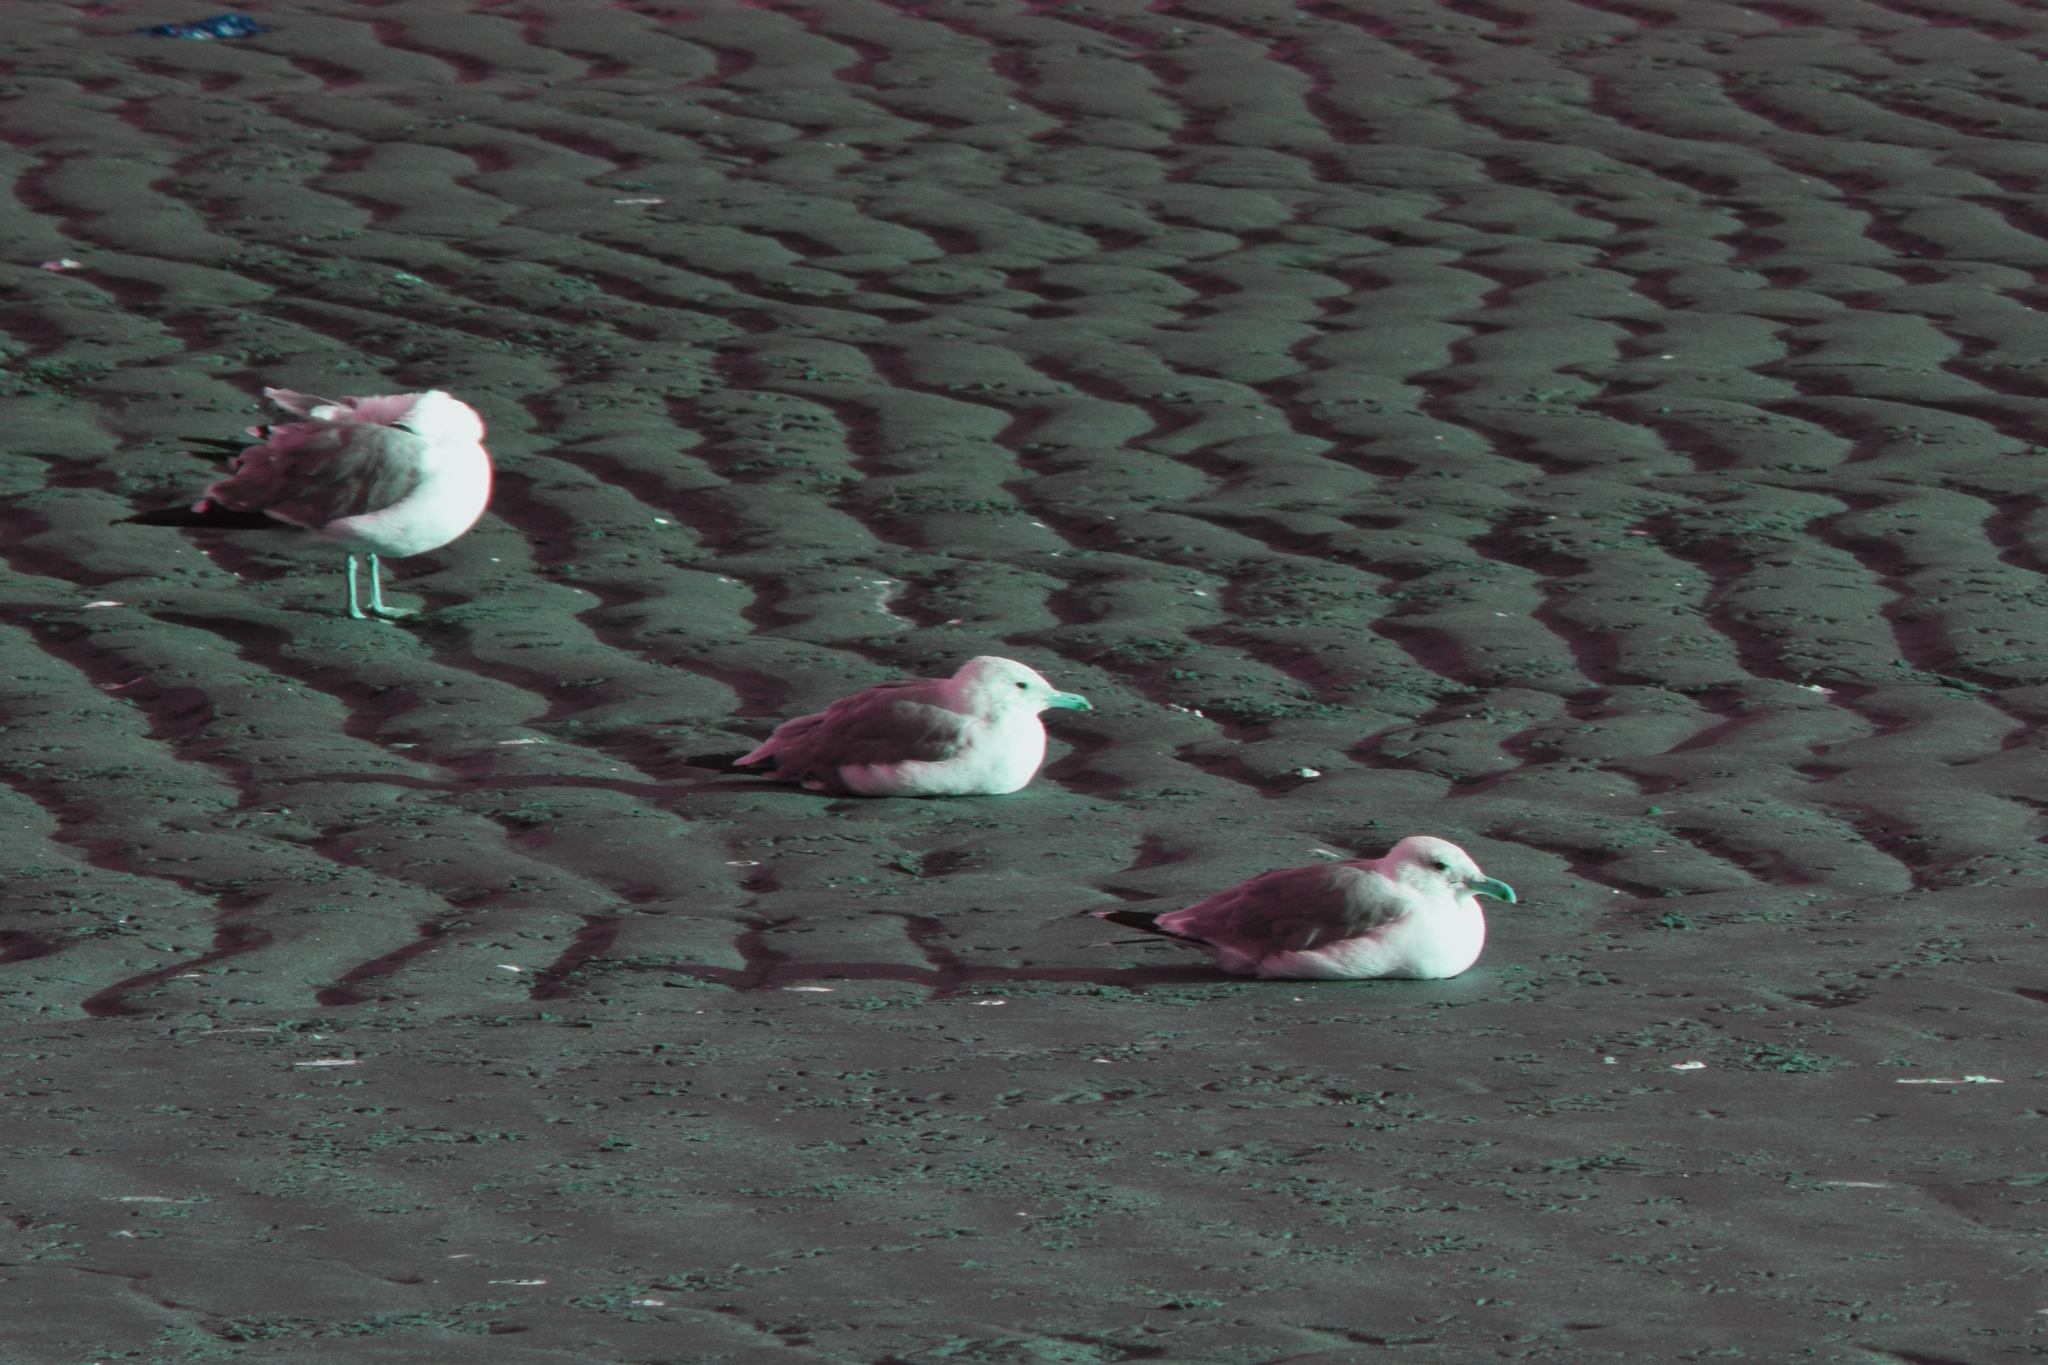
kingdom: Animalia
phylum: Chordata
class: Aves
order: Charadriiformes
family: Laridae
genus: Larus
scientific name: Larus californicus
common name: California gull
